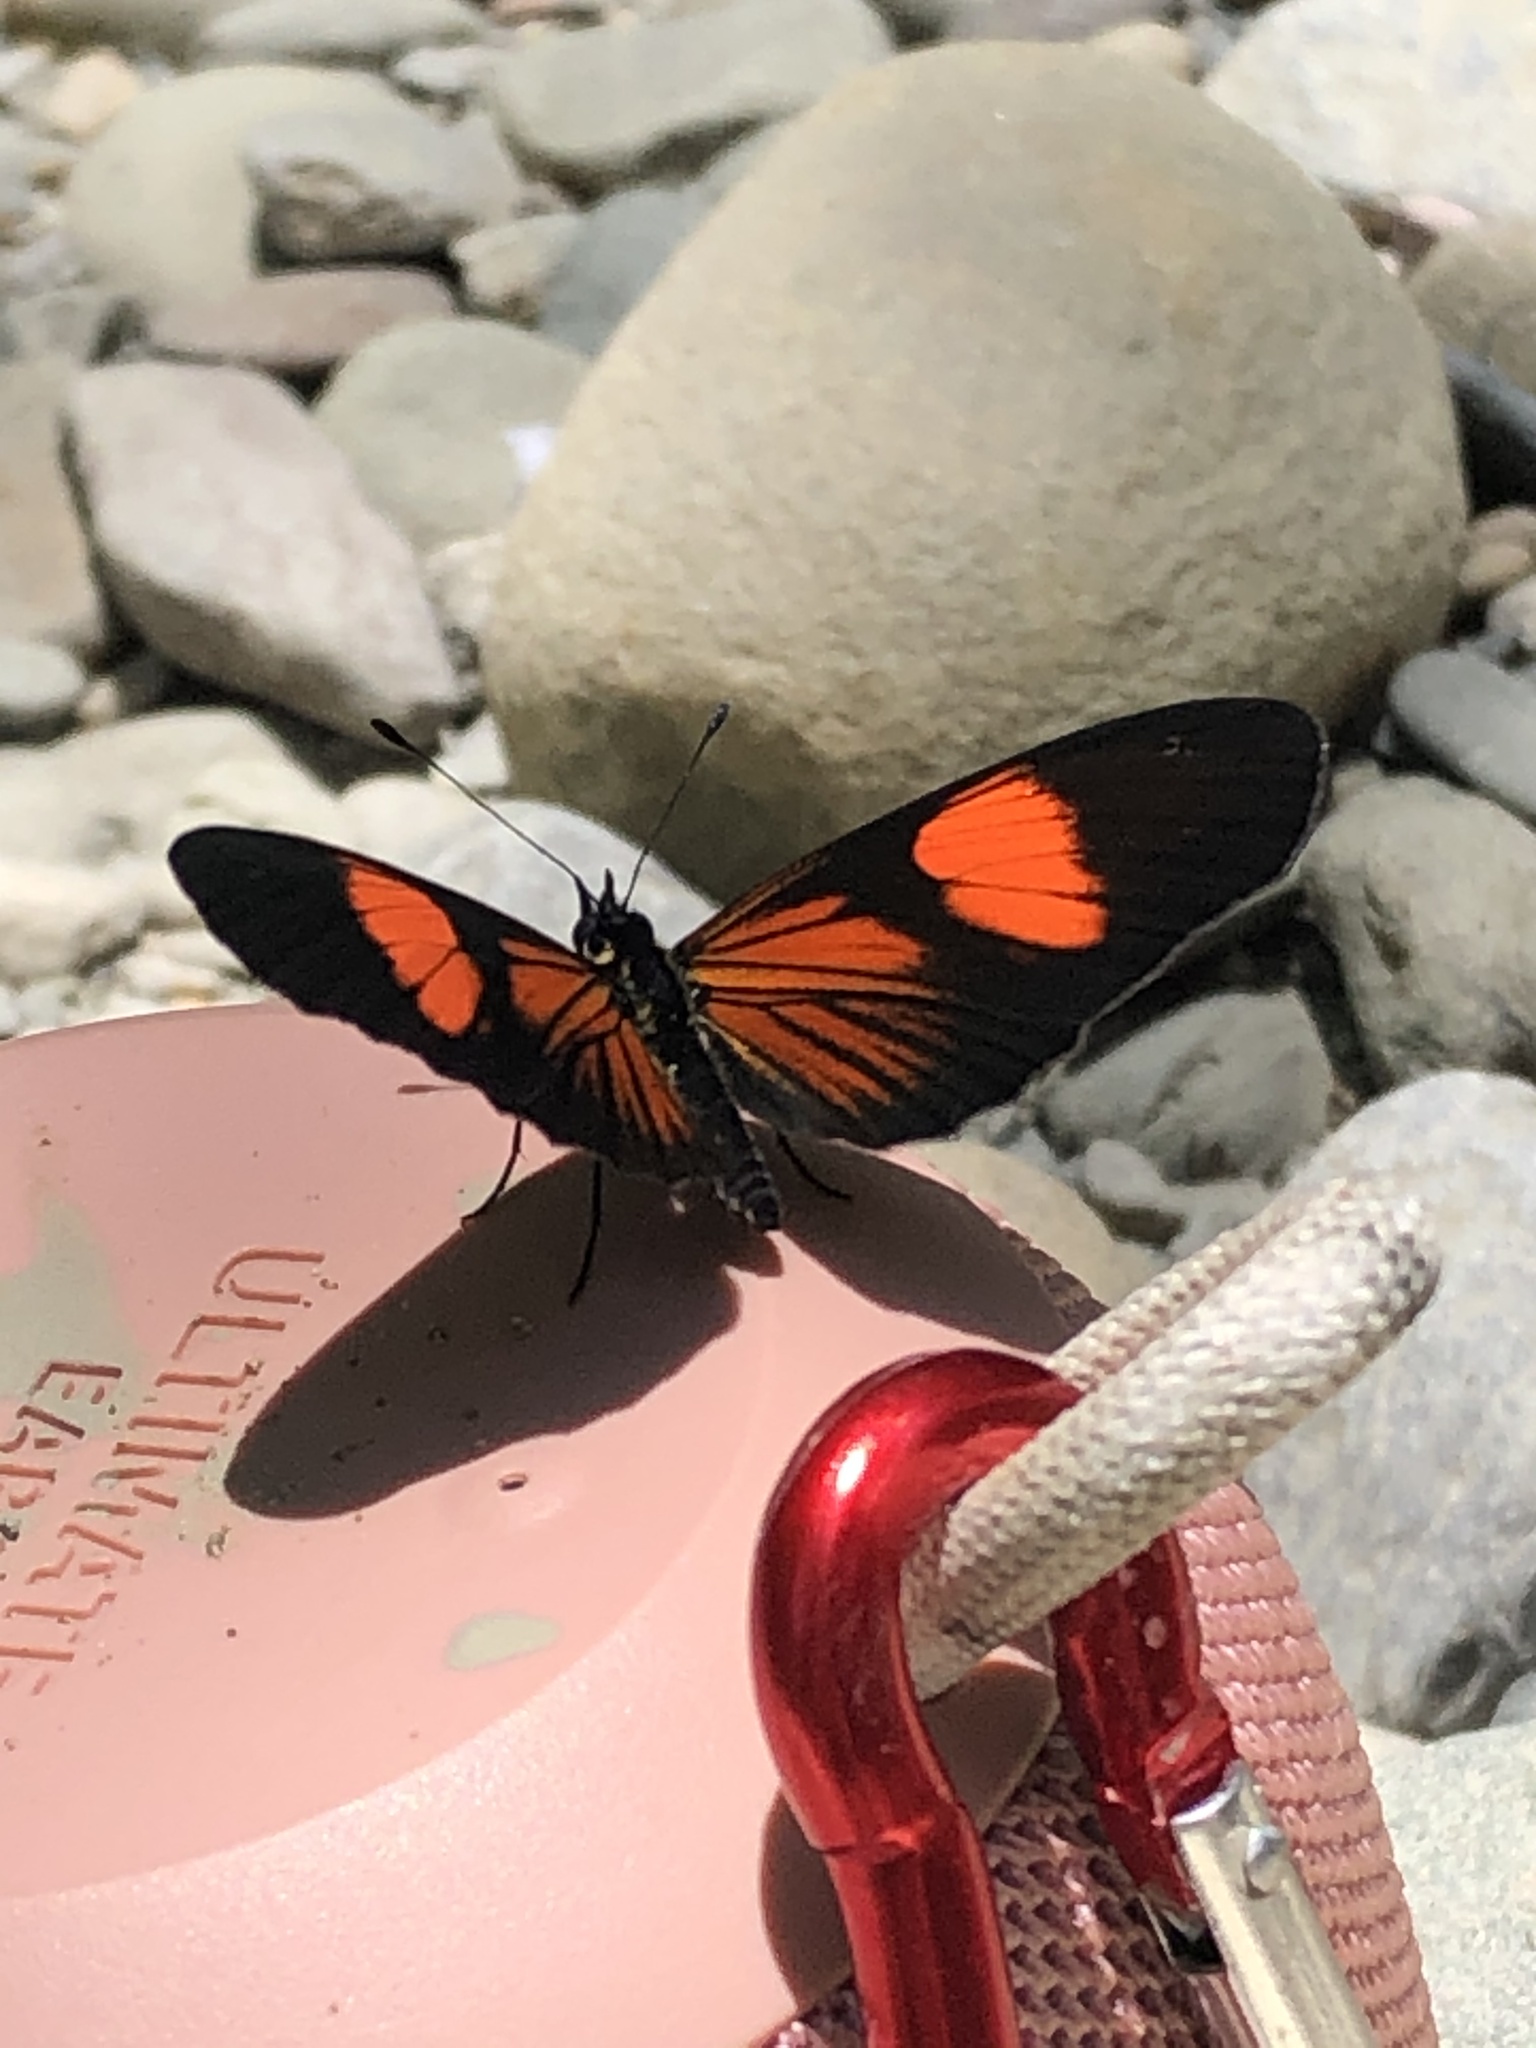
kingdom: Animalia
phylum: Arthropoda
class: Insecta
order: Lepidoptera
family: Nymphalidae
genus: Castilia
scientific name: Castilia perilla
